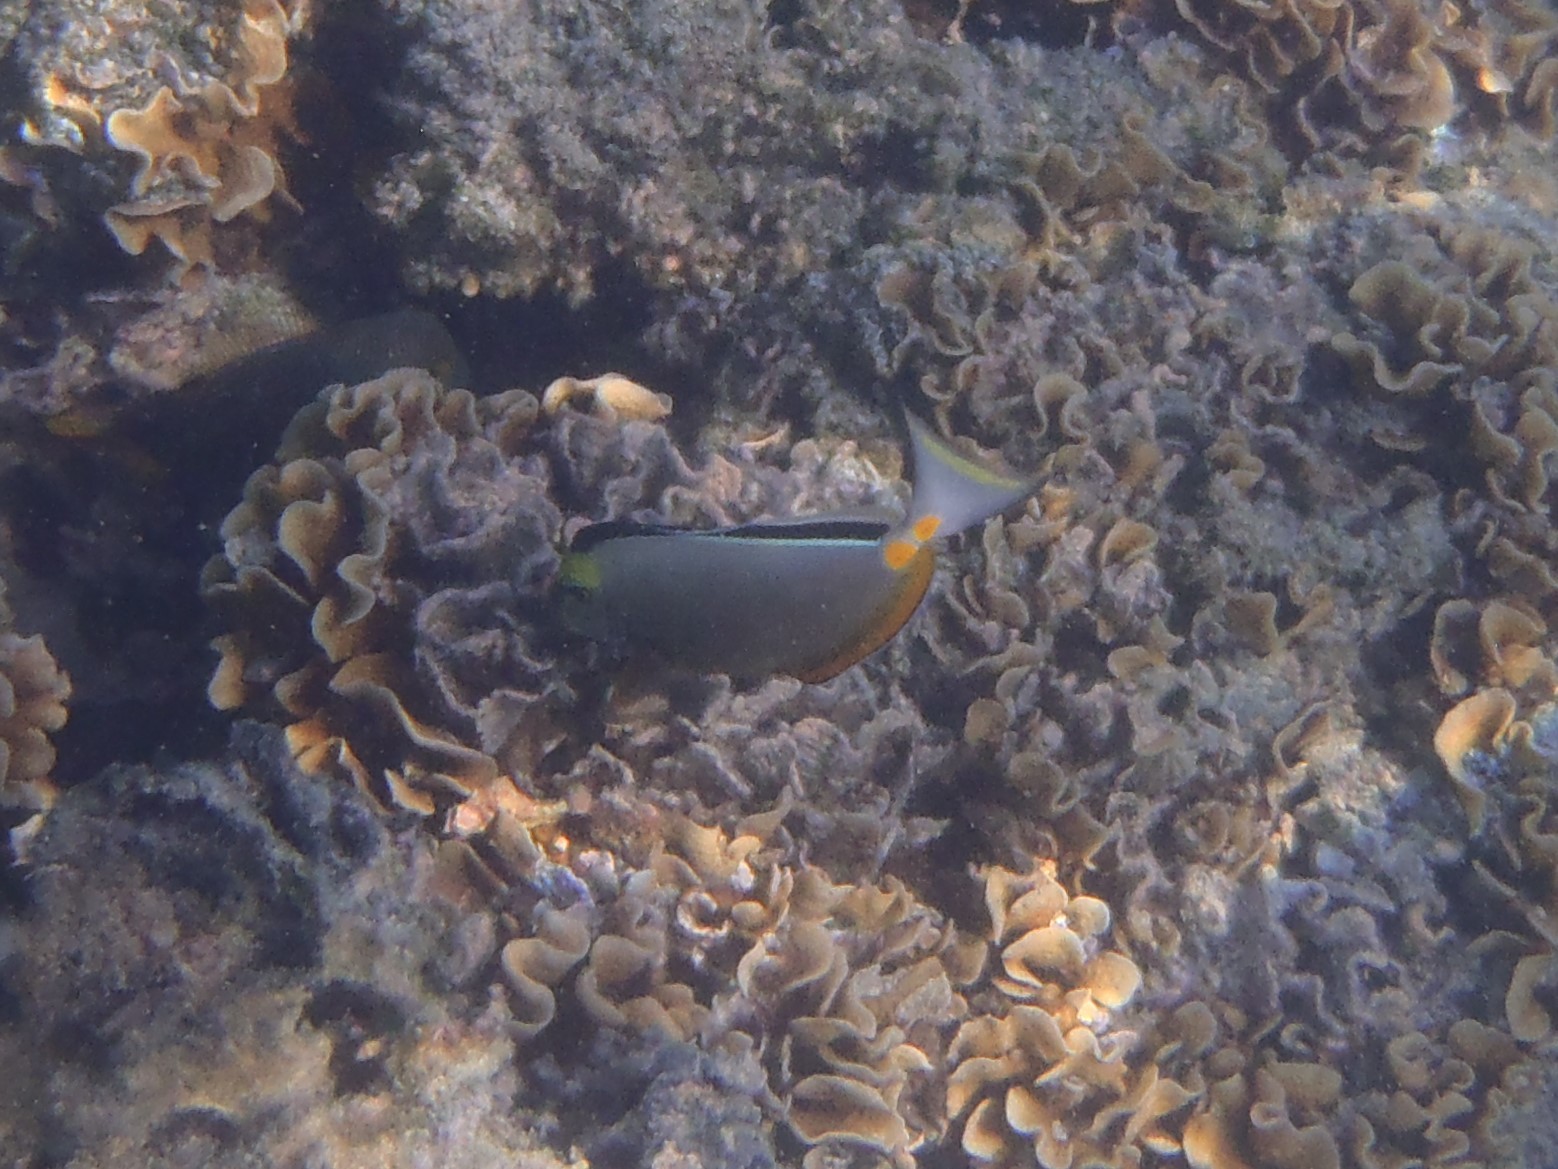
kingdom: Animalia
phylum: Chordata
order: Perciformes
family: Acanthuridae
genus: Naso
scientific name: Naso lituratus
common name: Orangespine unicornfish
